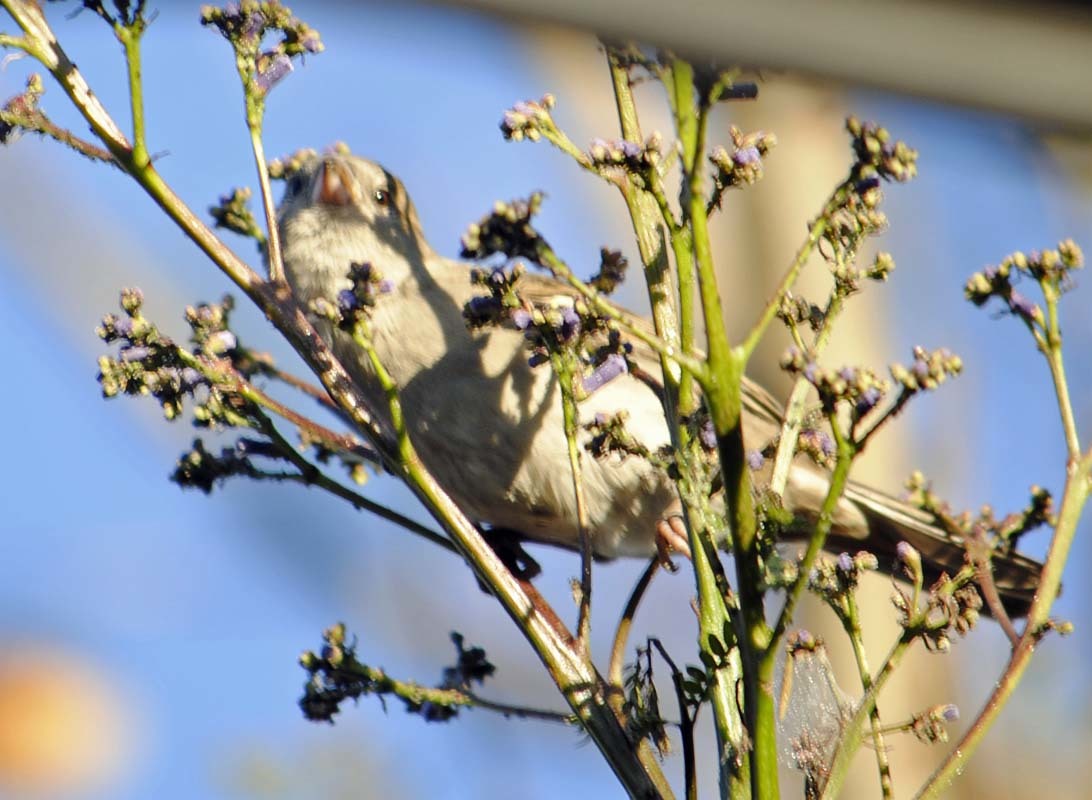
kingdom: Animalia
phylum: Chordata
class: Aves
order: Passeriformes
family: Passeridae
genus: Passer
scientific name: Passer domesticus
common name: House sparrow
